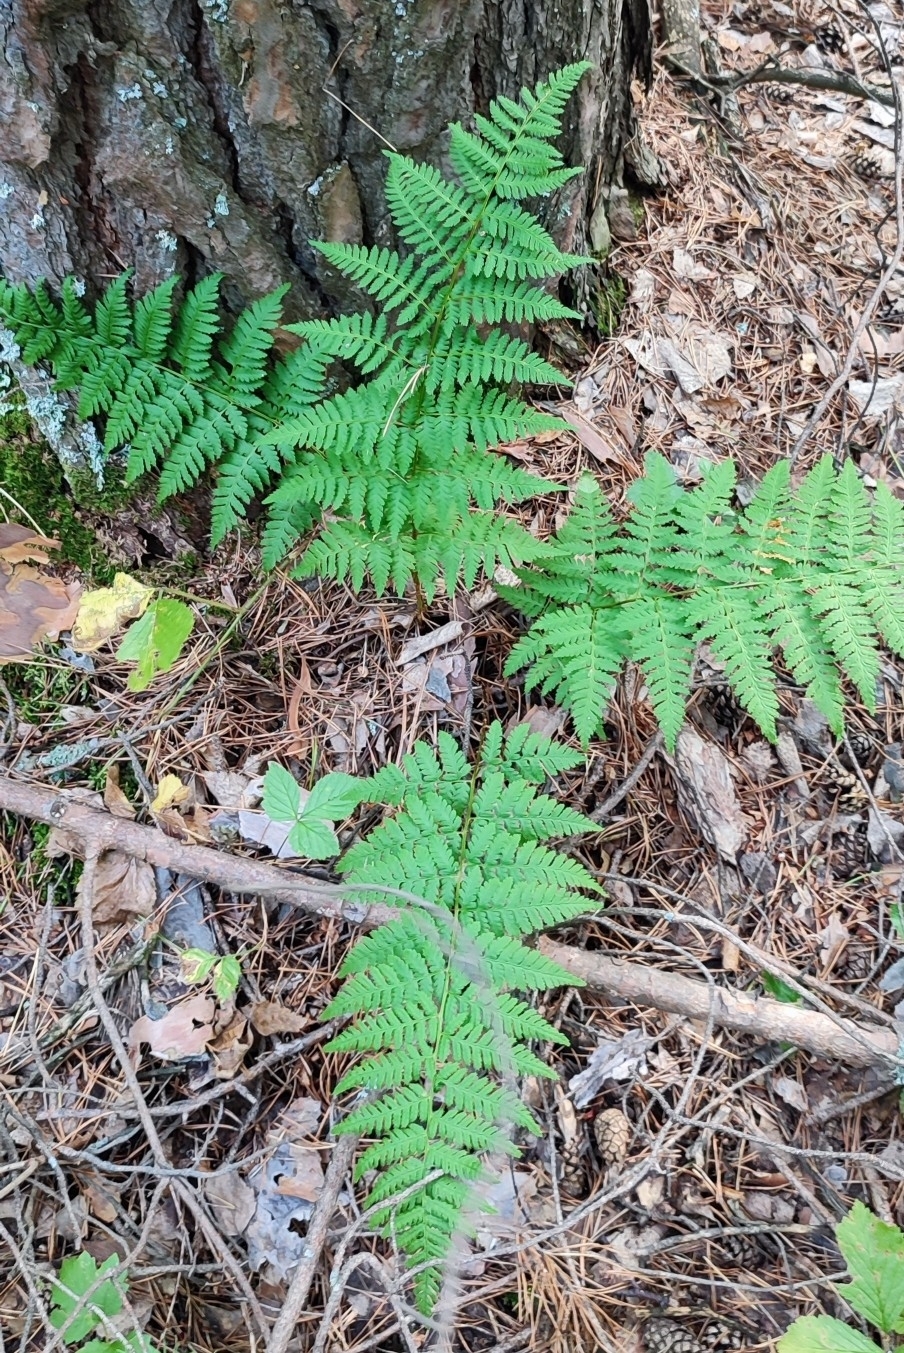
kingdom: Plantae
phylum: Tracheophyta
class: Polypodiopsida
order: Polypodiales
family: Dryopteridaceae
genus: Dryopteris
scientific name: Dryopteris carthusiana
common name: Narrow buckler-fern
